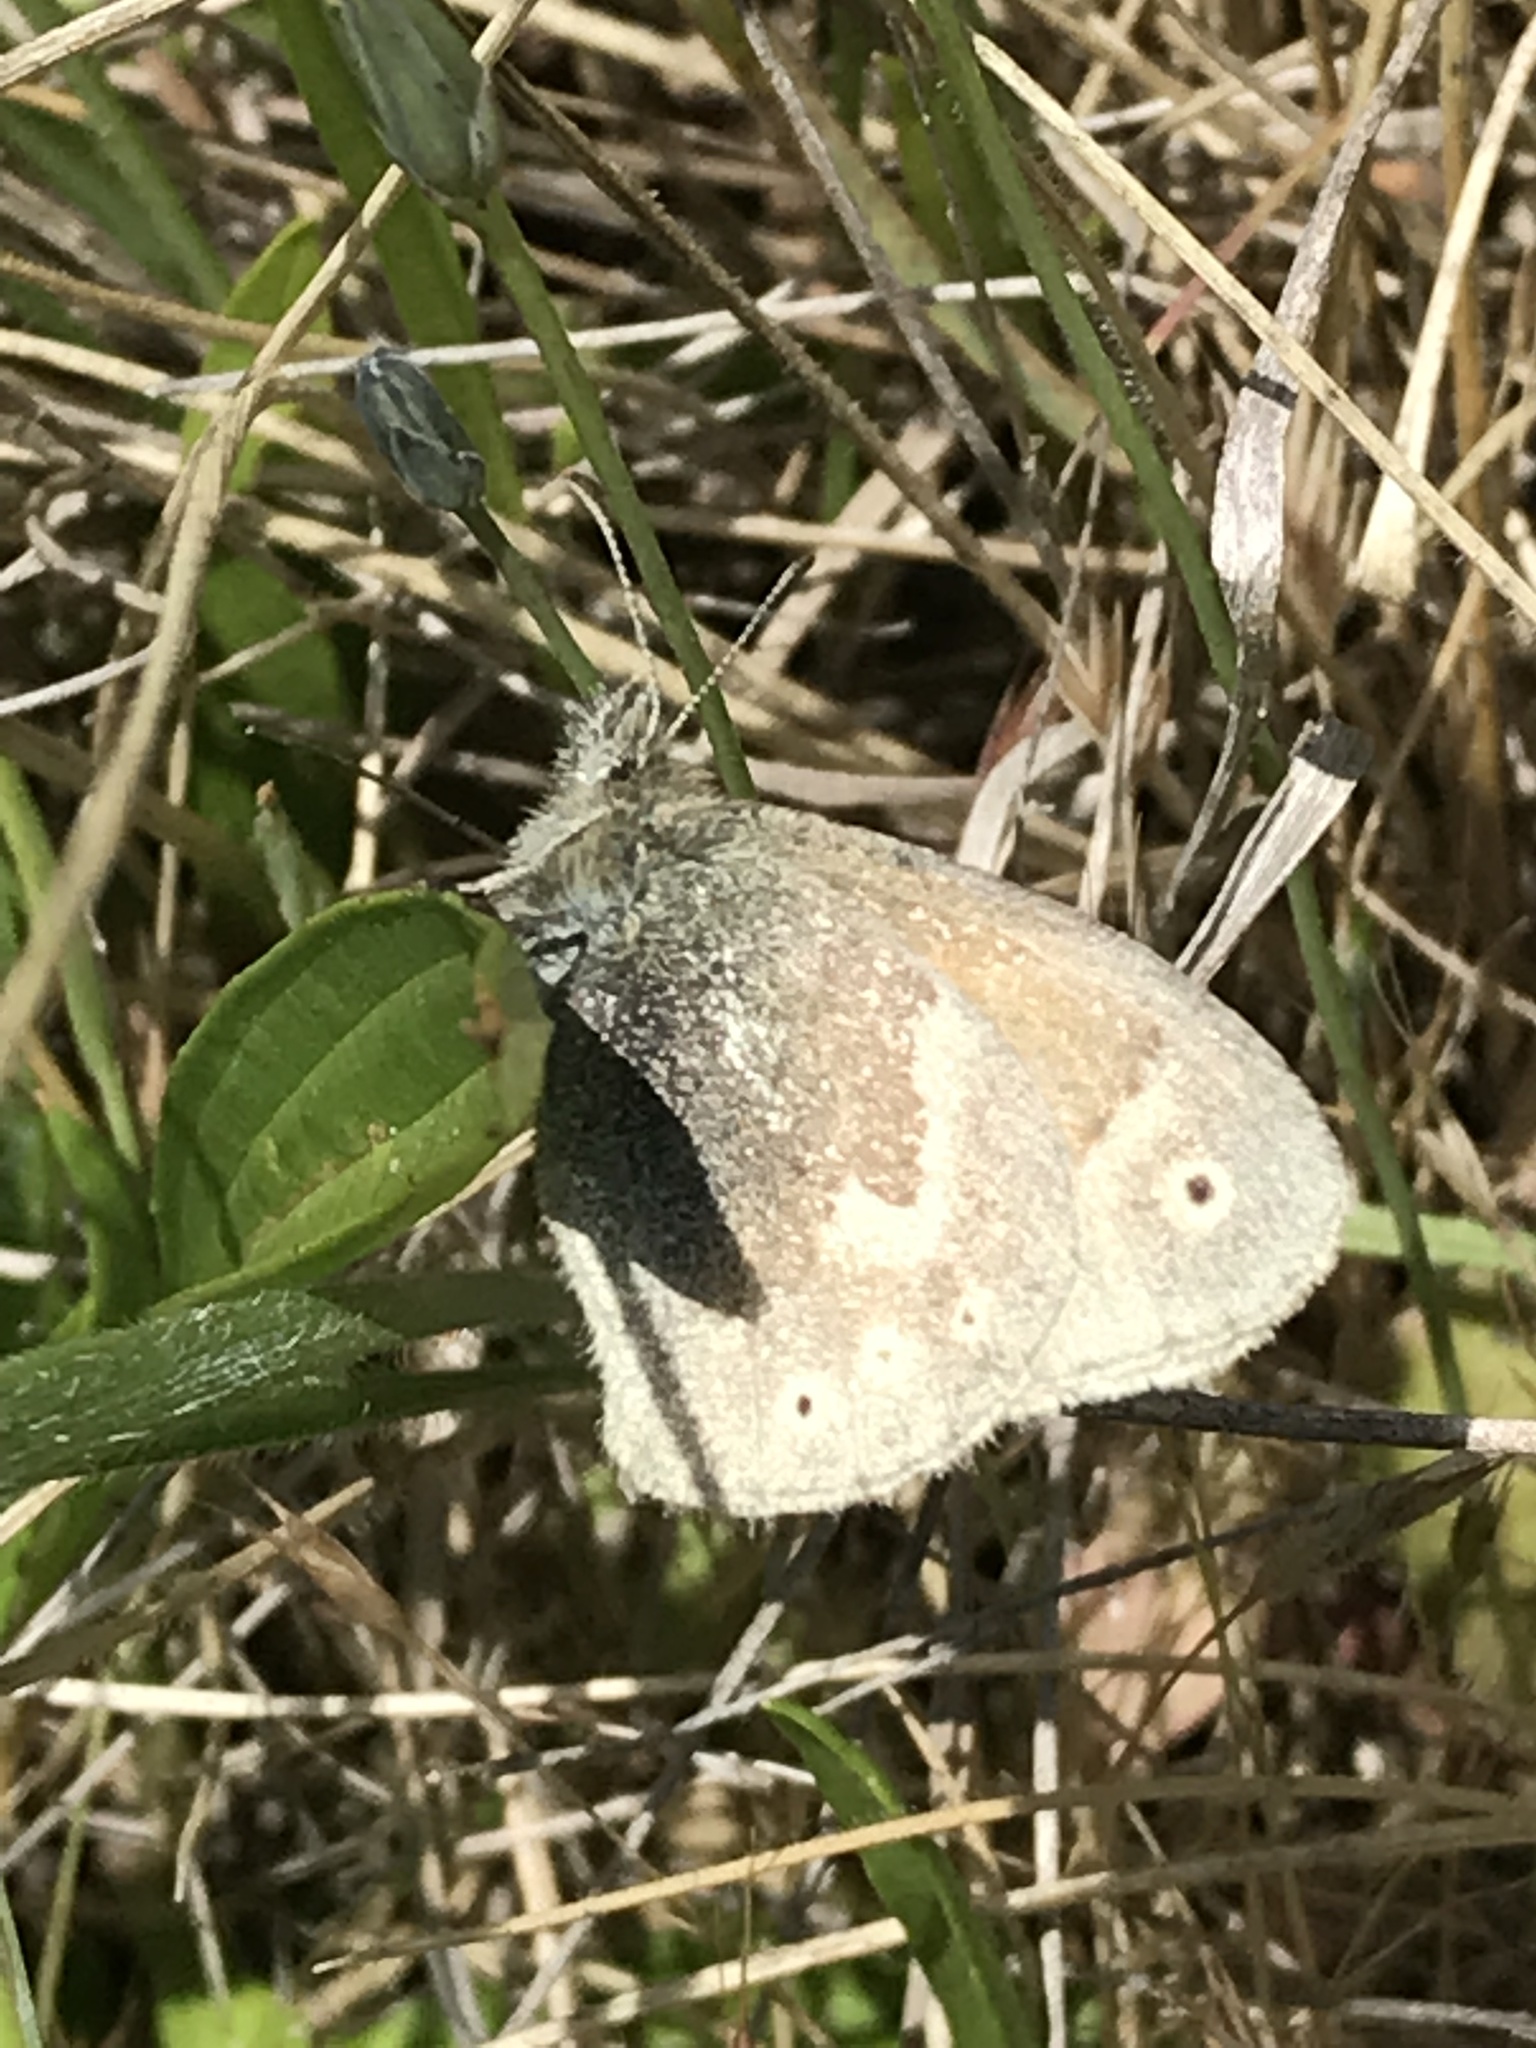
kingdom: Animalia
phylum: Arthropoda
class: Insecta
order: Lepidoptera
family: Nymphalidae
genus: Coenonympha
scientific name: Coenonympha california
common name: Common ringlet
